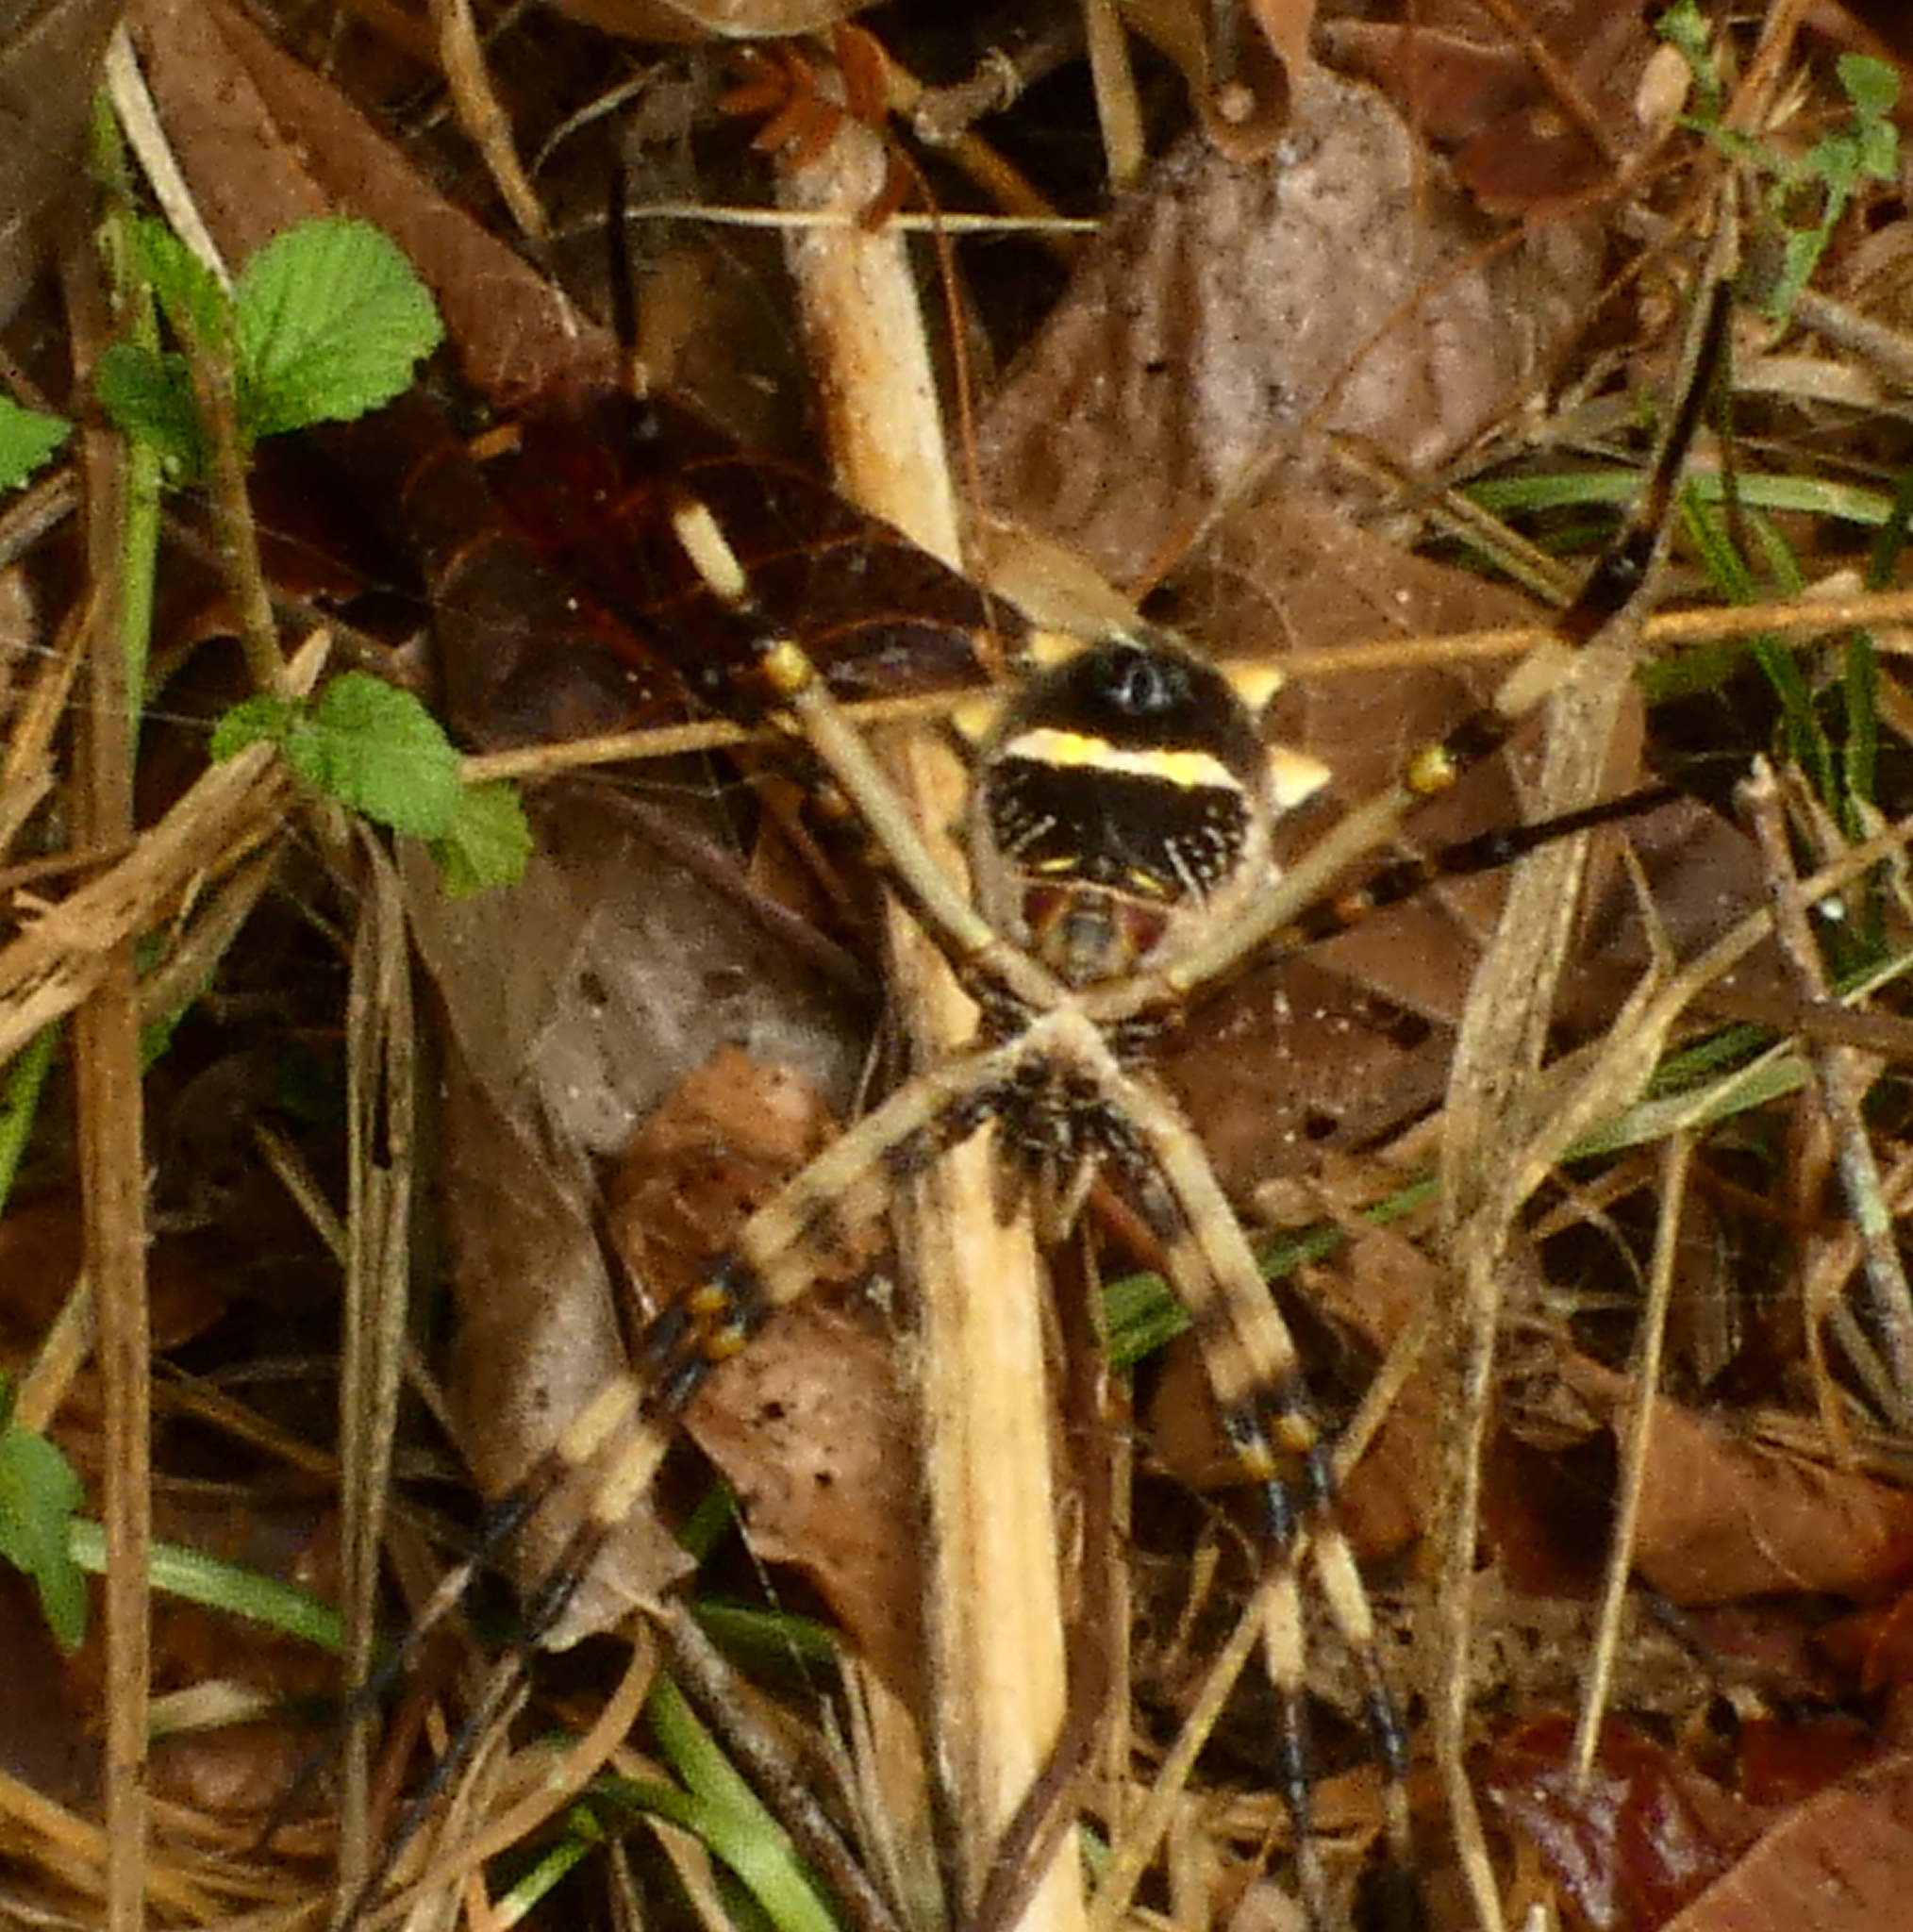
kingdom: Animalia
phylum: Arthropoda
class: Arachnida
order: Araneae
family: Araneidae
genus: Argiope
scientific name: Argiope argentata
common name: Orb weavers
